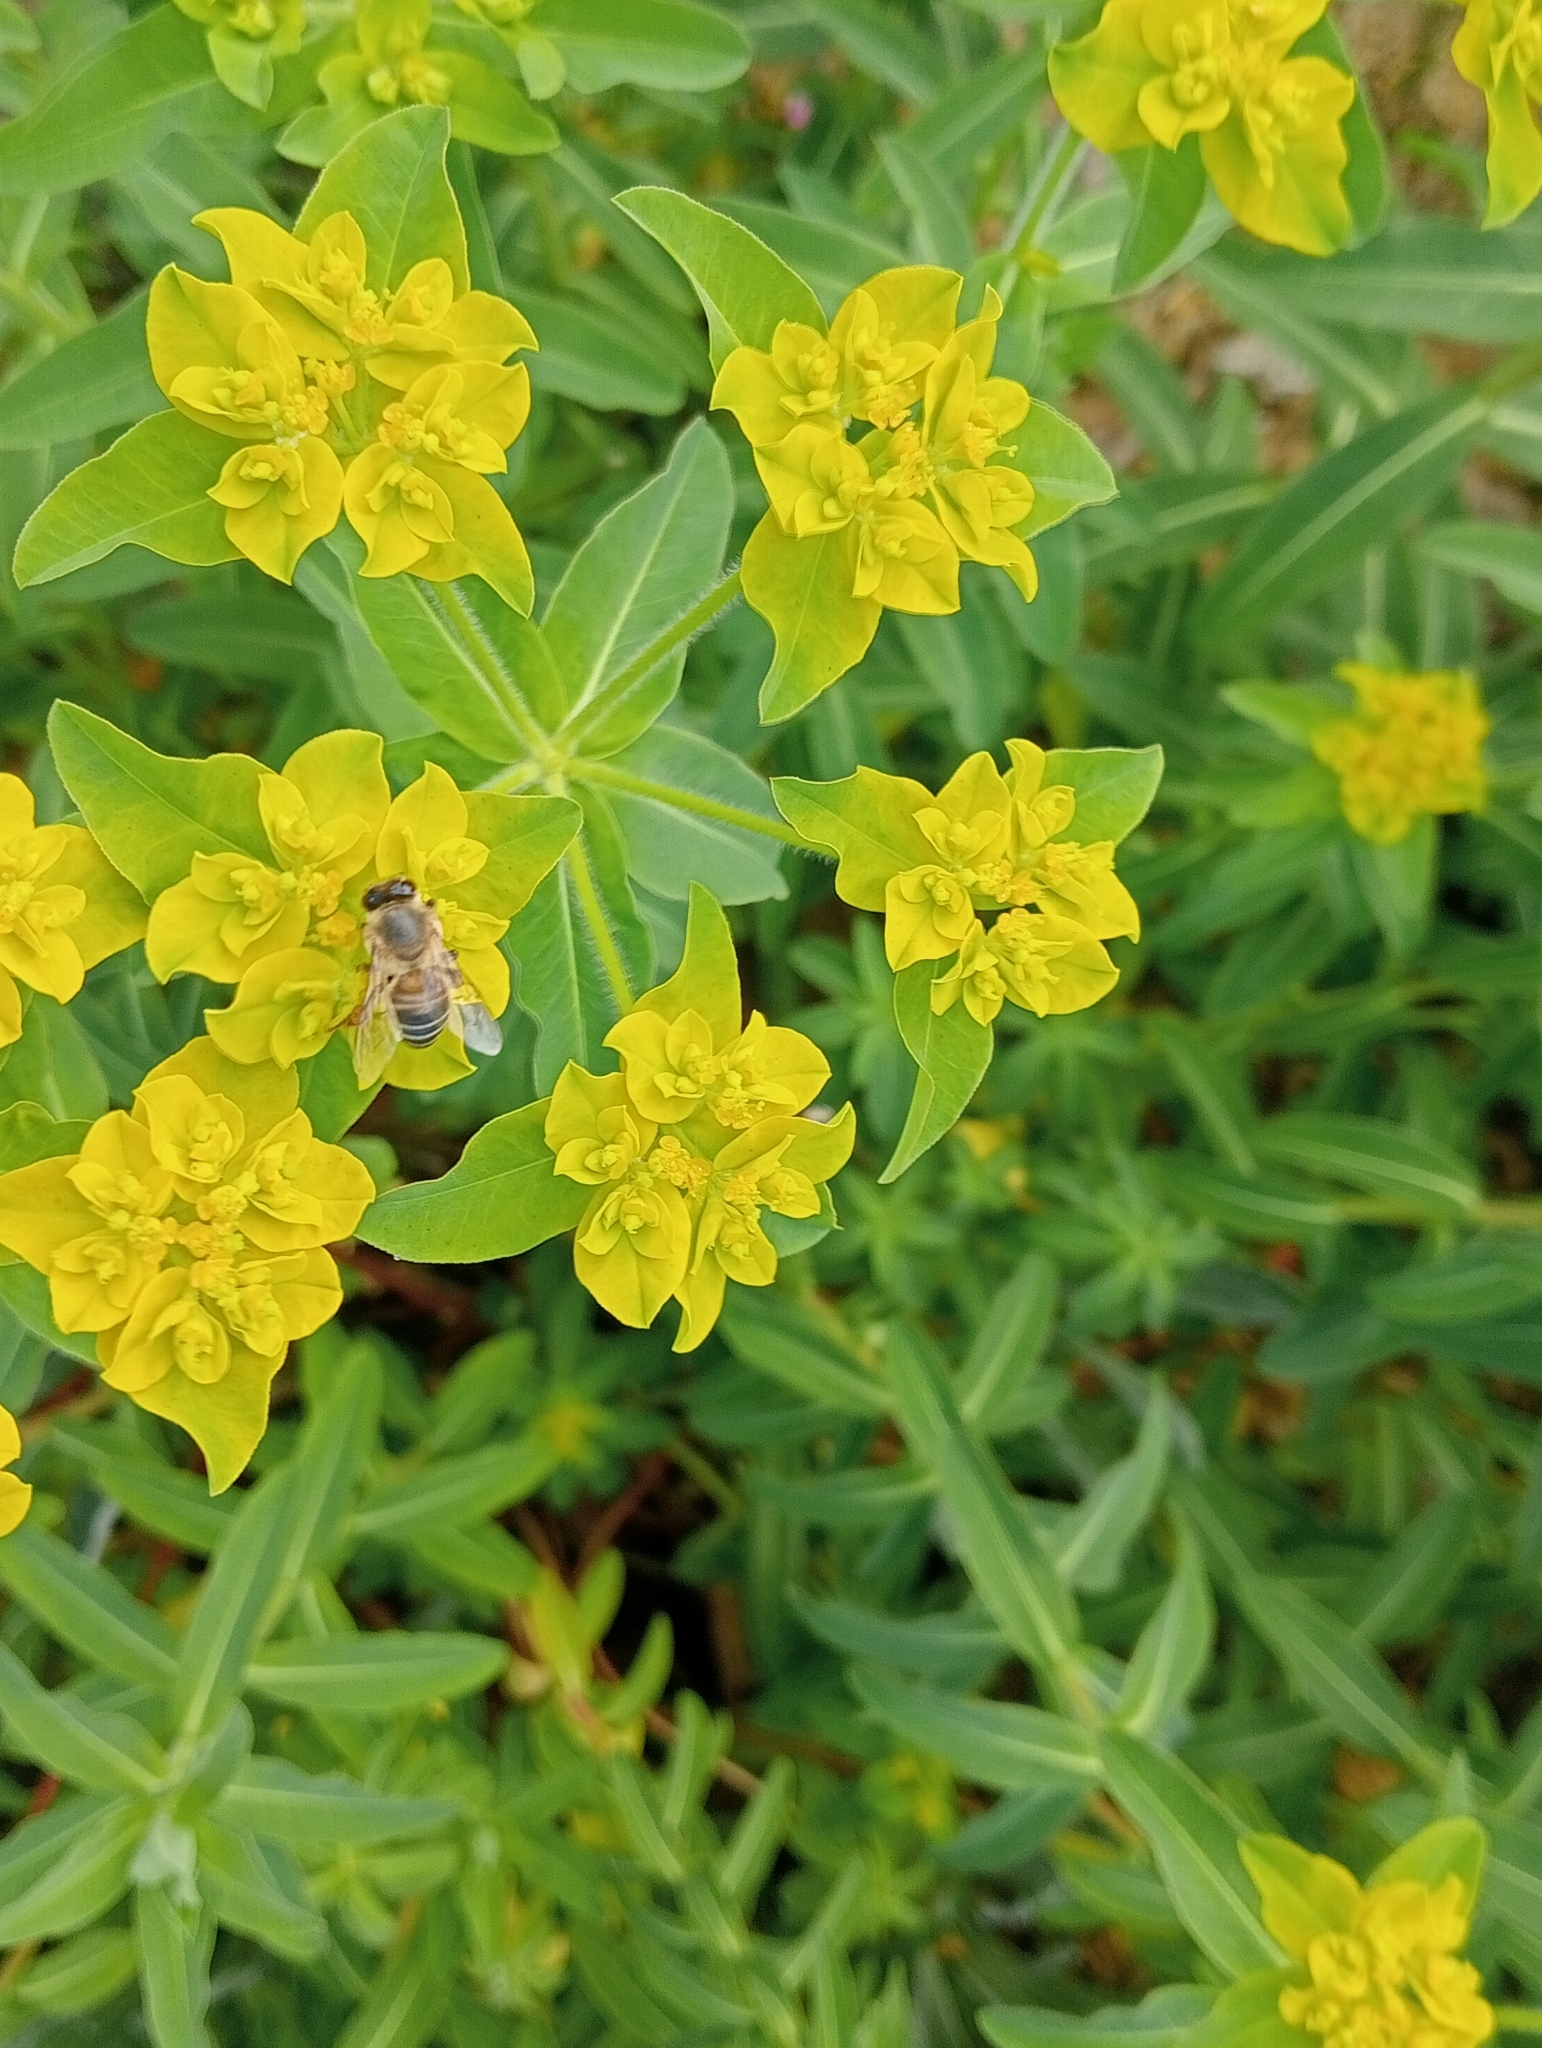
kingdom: Animalia
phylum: Arthropoda
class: Insecta
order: Hymenoptera
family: Apidae
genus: Apis
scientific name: Apis mellifera
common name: Honey bee
